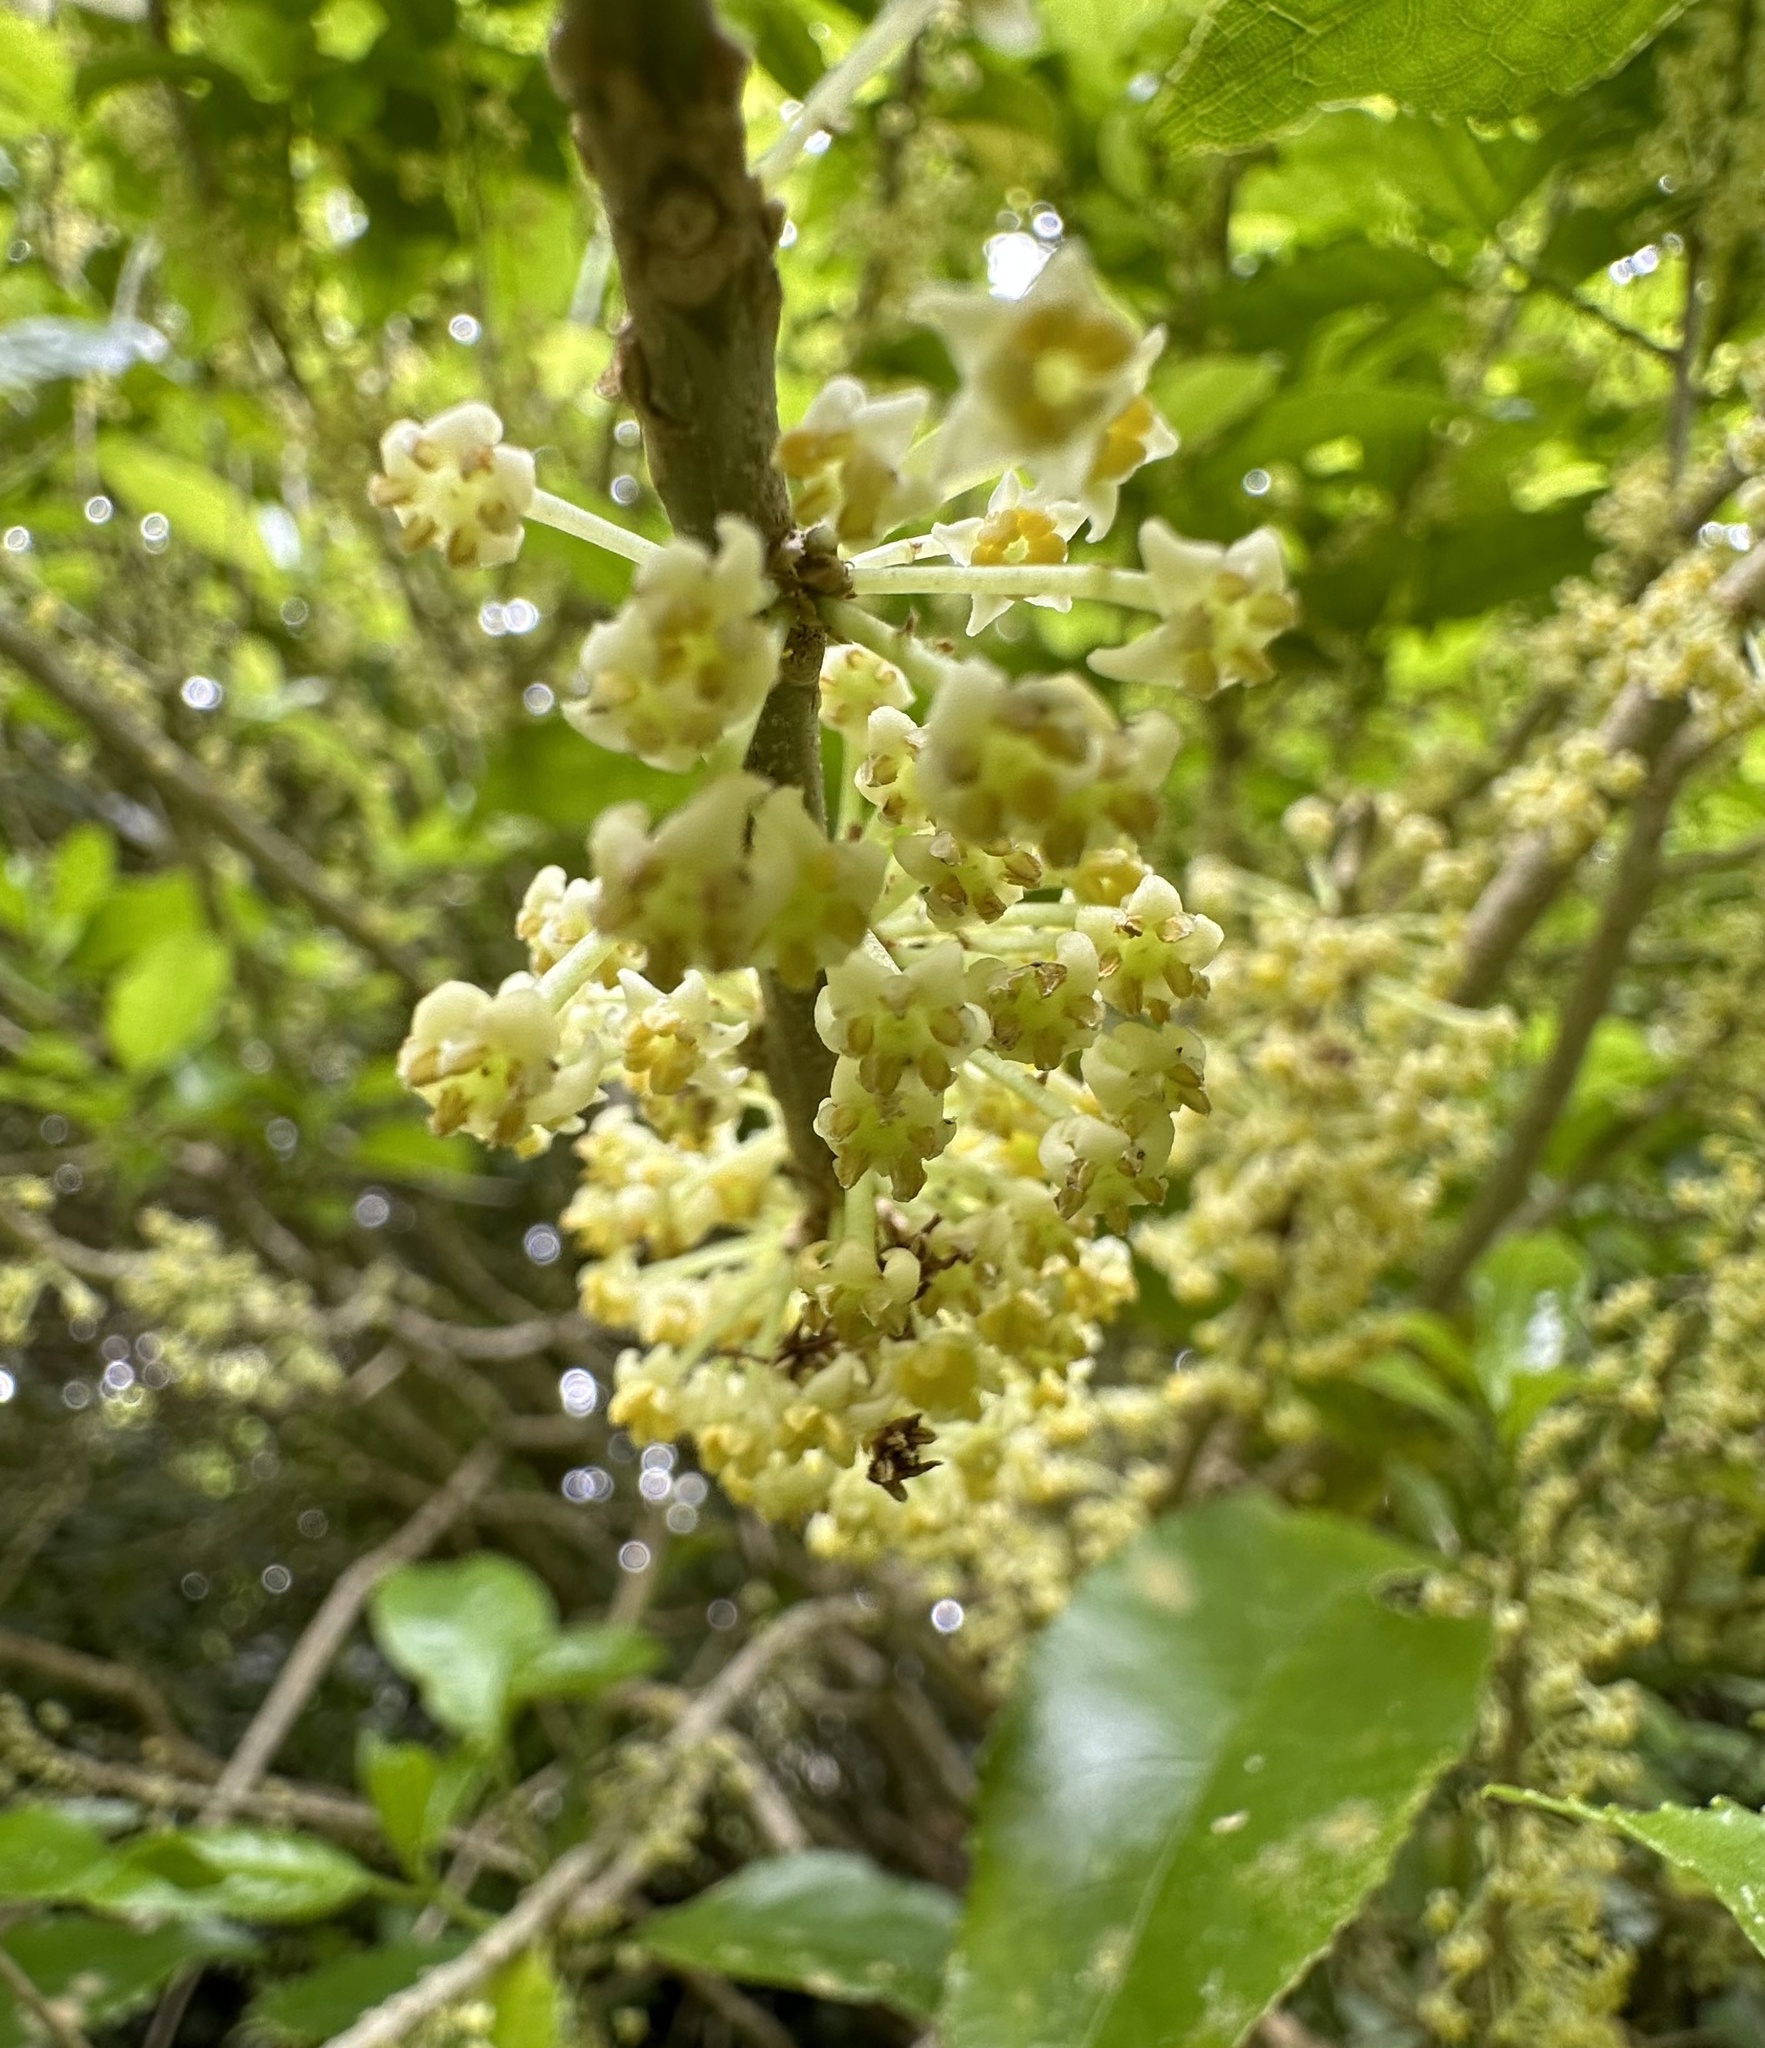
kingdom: Plantae
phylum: Tracheophyta
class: Magnoliopsida
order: Malpighiales
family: Violaceae
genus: Melicytus
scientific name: Melicytus ramiflorus
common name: Mahoe
